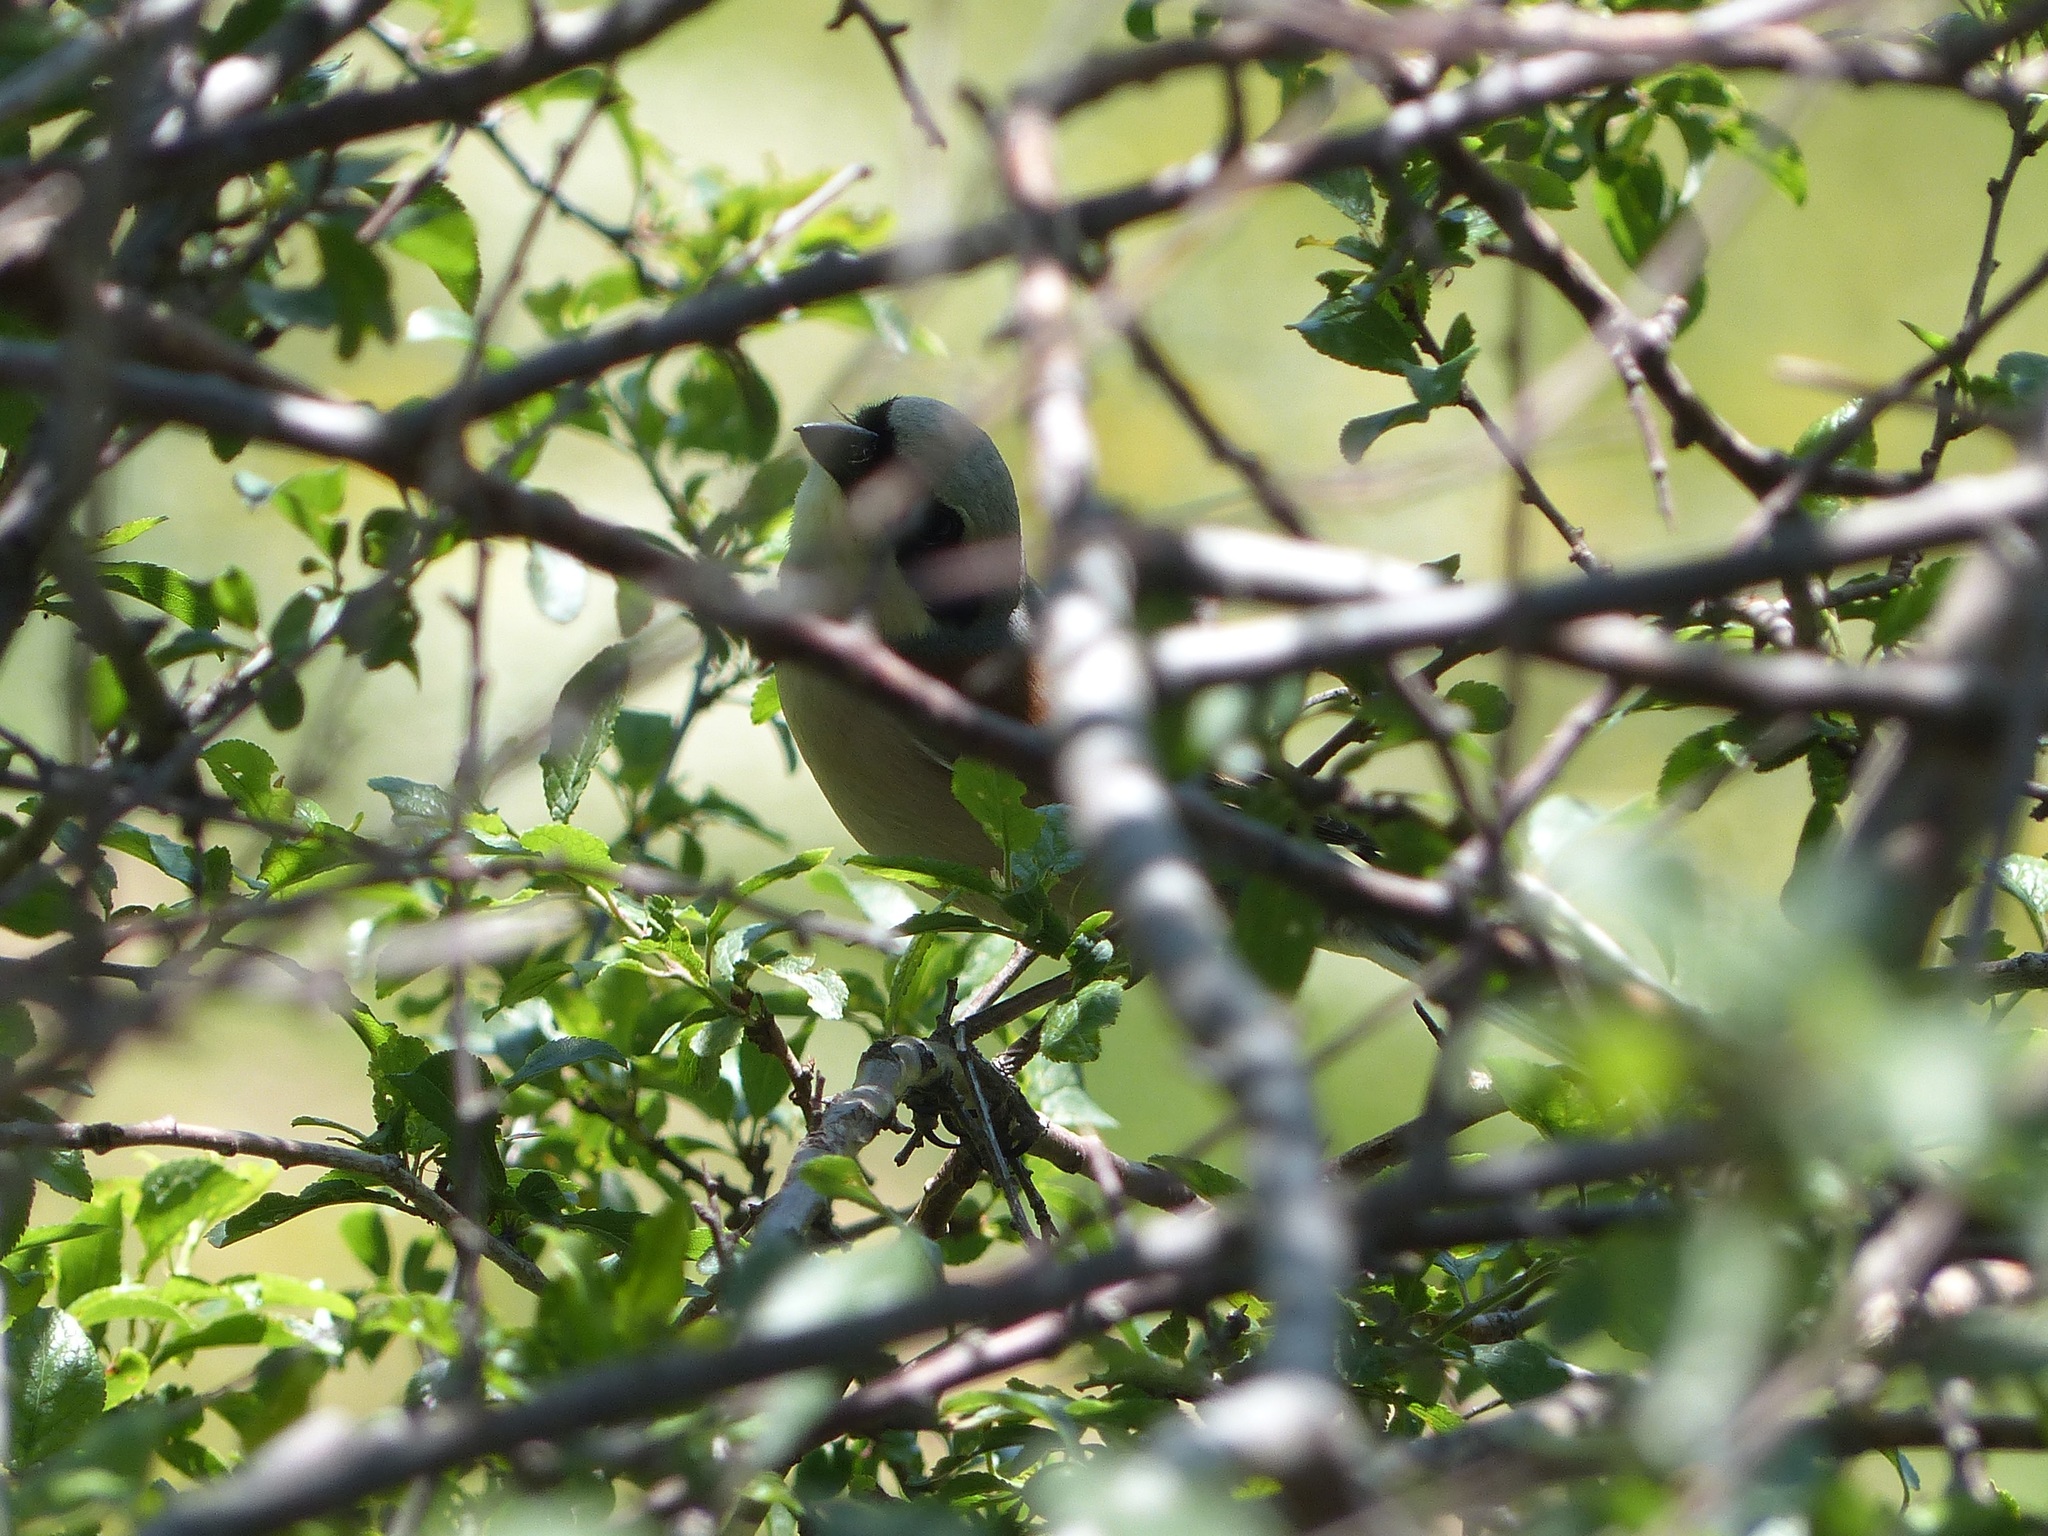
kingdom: Animalia
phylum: Chordata
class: Aves
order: Passeriformes
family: Laniidae
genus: Lanius
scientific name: Lanius collurio
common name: Red-backed shrike
